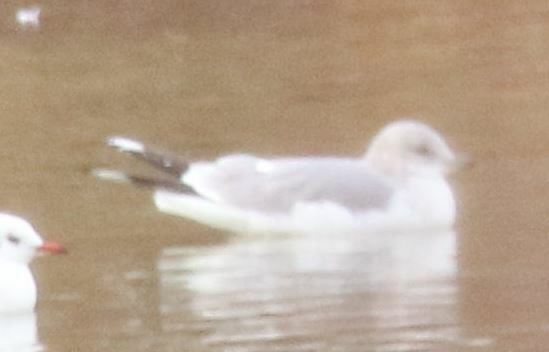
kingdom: Animalia
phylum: Chordata
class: Aves
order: Charadriiformes
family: Laridae
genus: Larus
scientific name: Larus canus
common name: Mew gull
